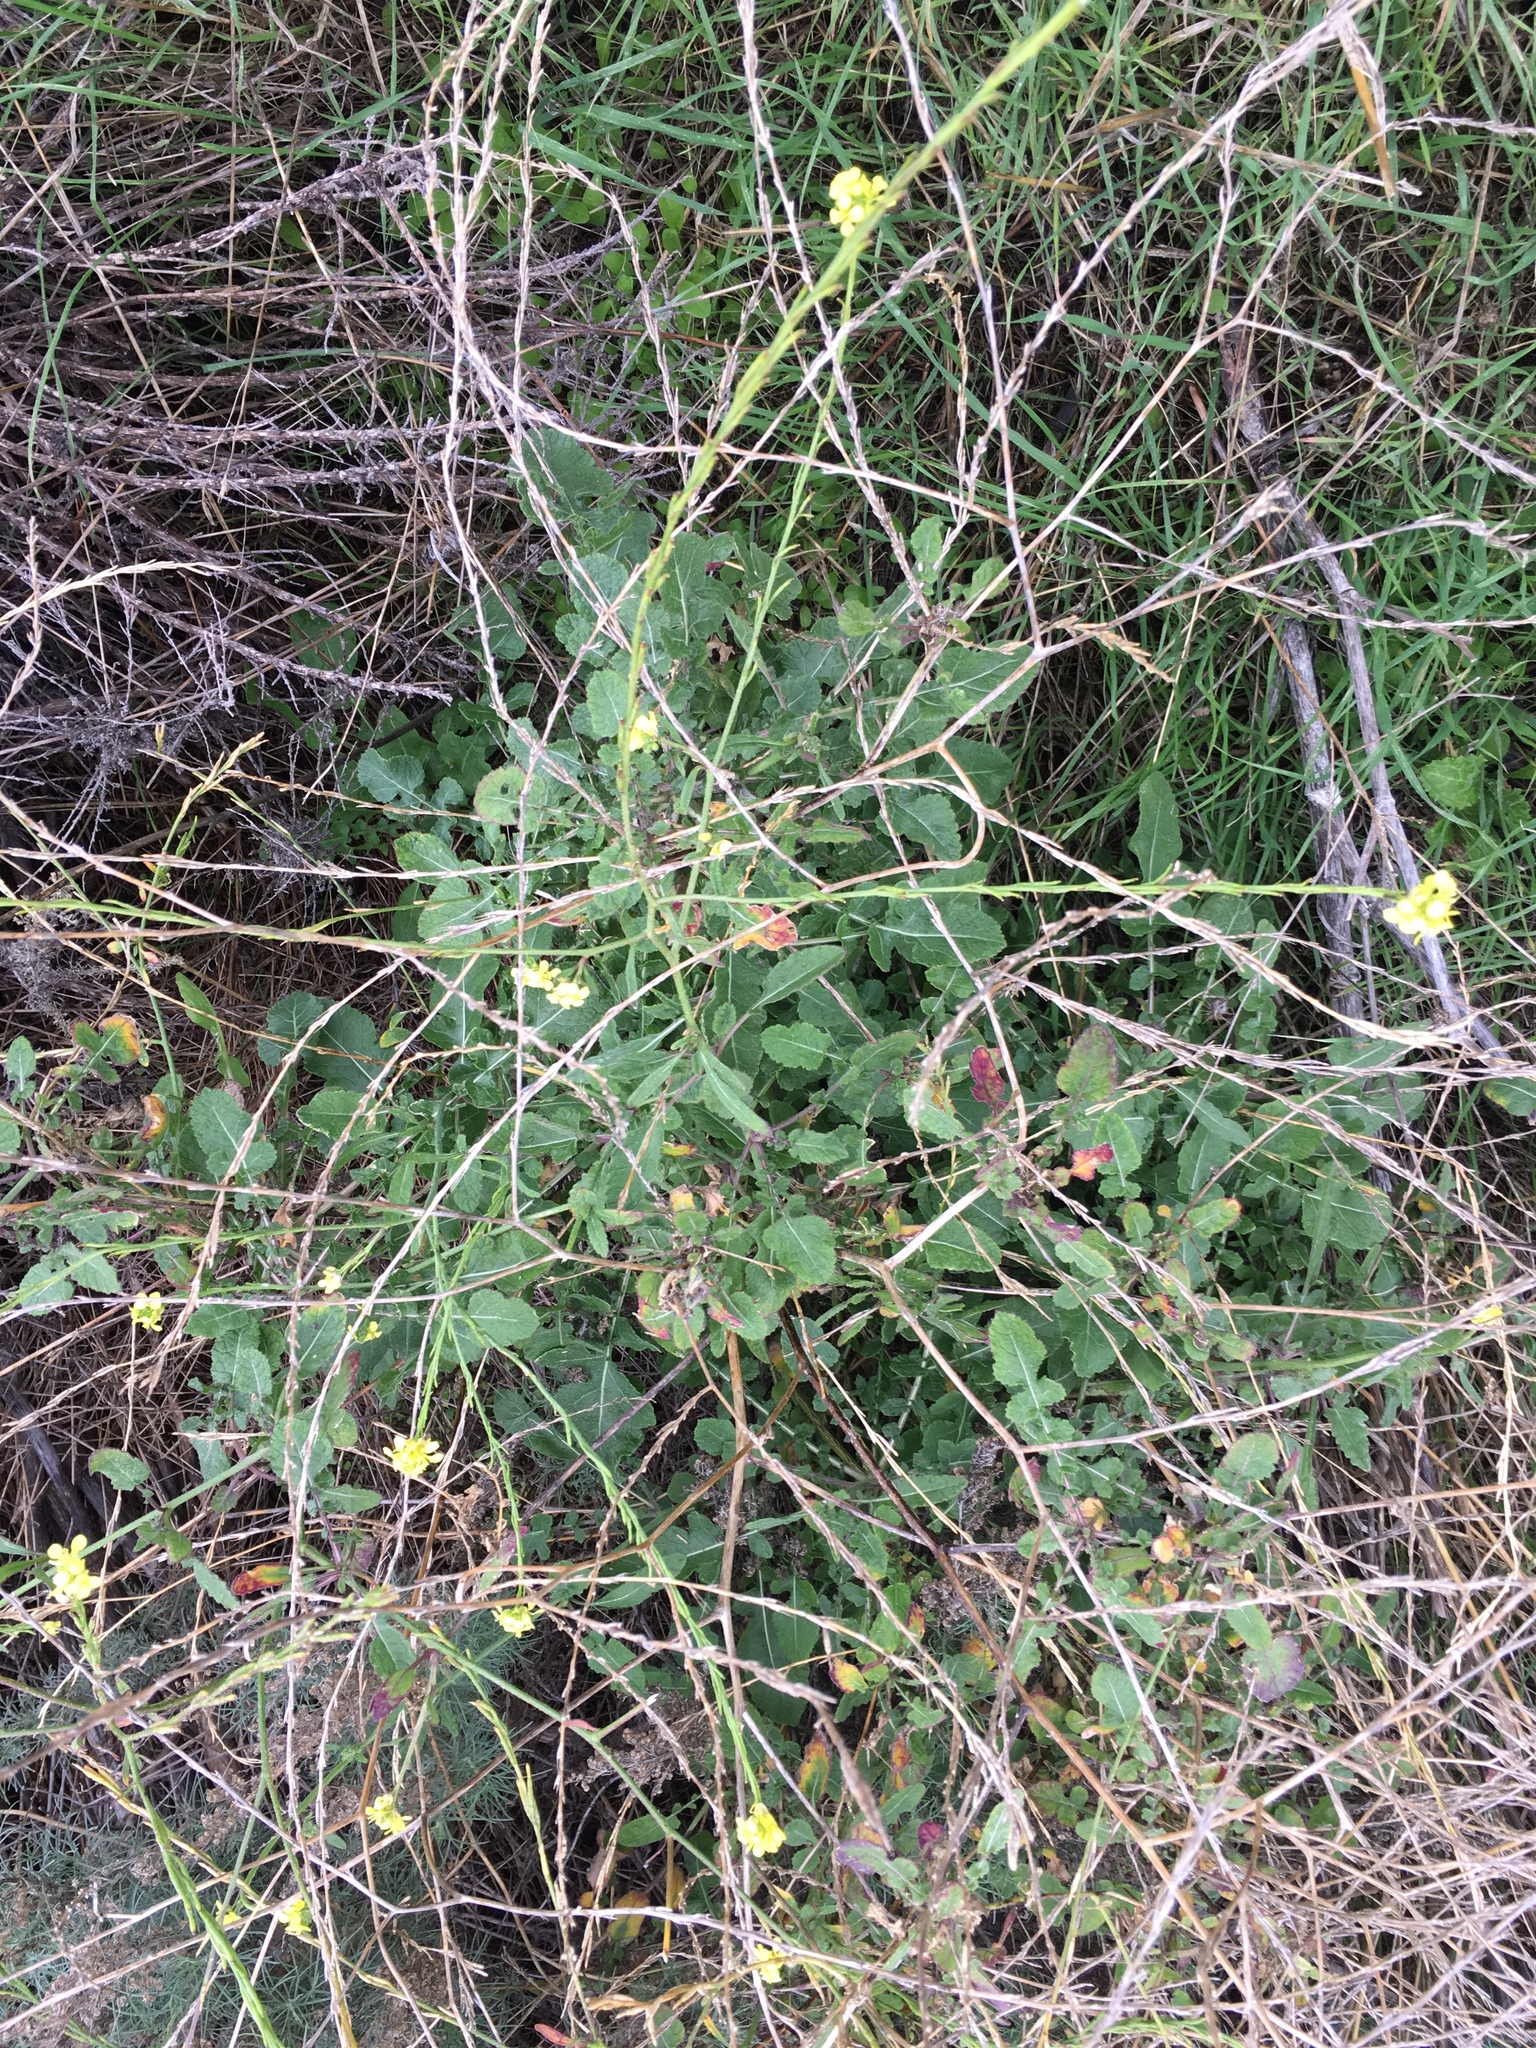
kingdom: Plantae
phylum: Tracheophyta
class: Magnoliopsida
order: Brassicales
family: Brassicaceae
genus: Hirschfeldia
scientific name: Hirschfeldia incana
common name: Hoary mustard
